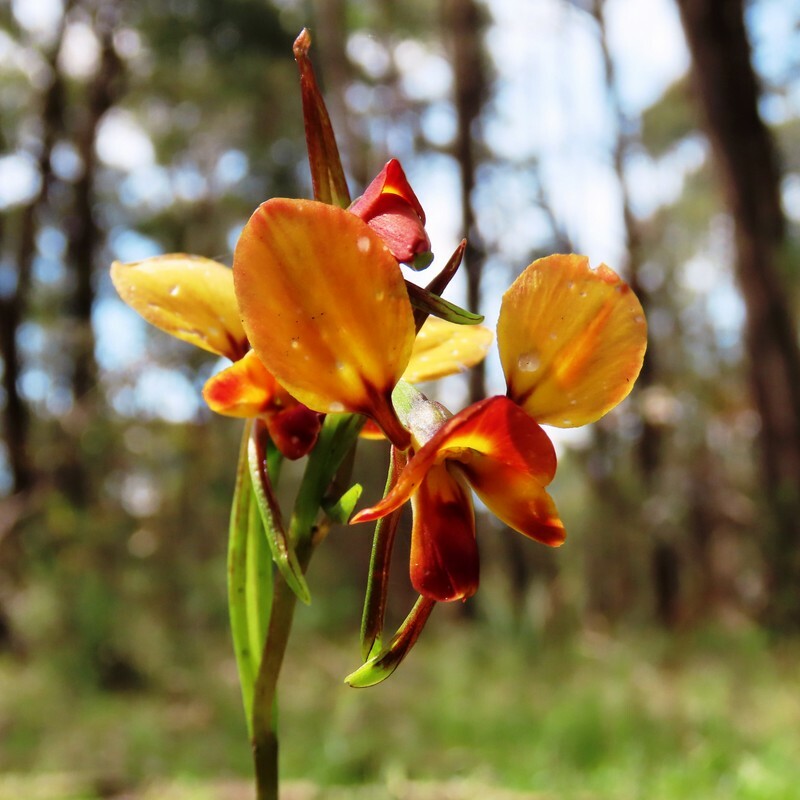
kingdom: Plantae
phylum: Tracheophyta
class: Liliopsida
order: Asparagales
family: Orchidaceae
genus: Diuris
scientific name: Diuris orientis
